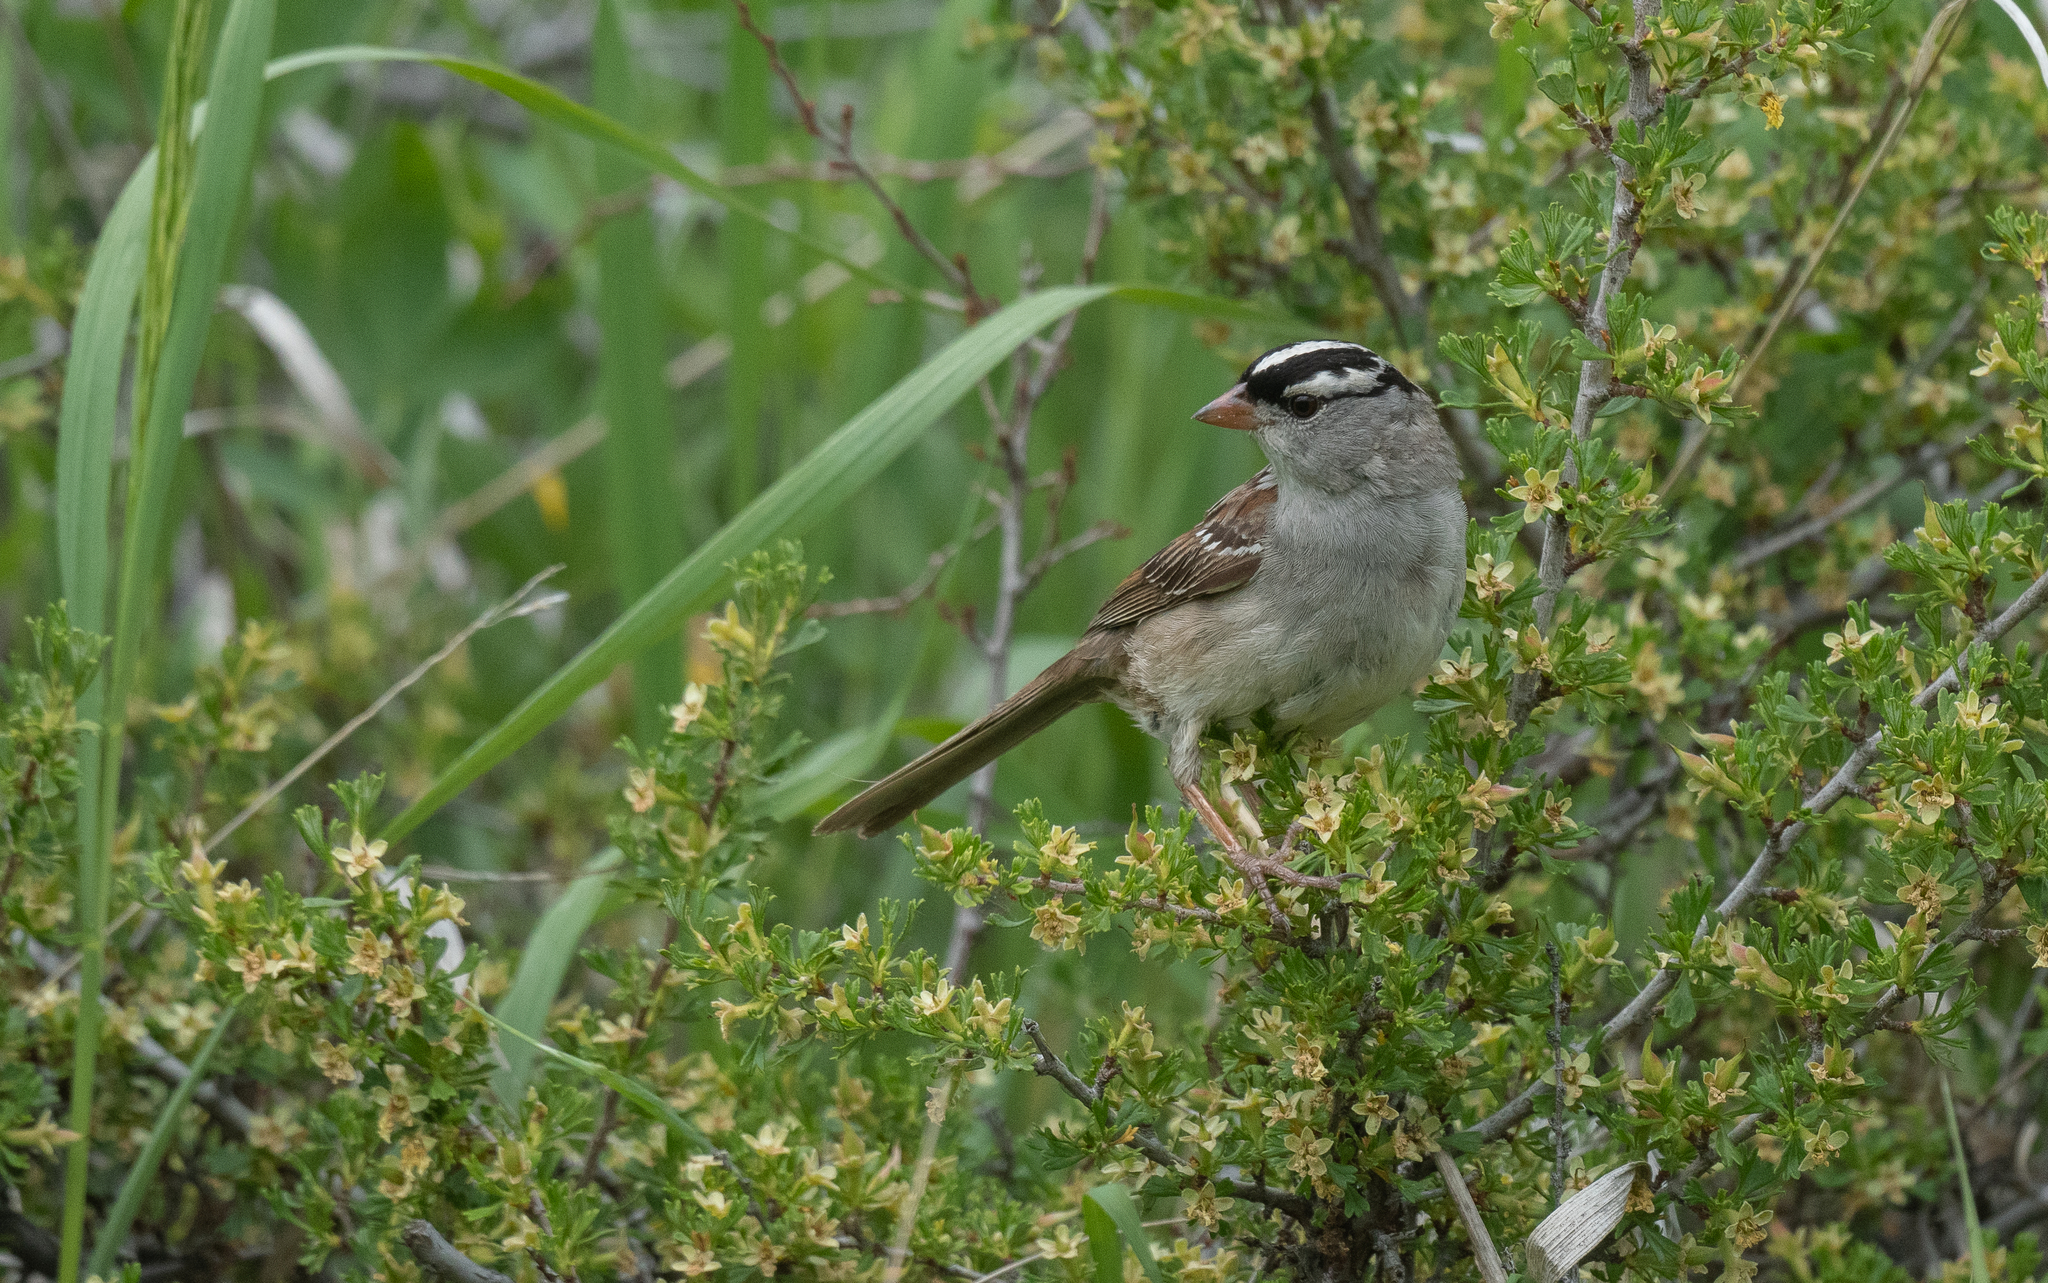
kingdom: Animalia
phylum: Chordata
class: Aves
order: Passeriformes
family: Passerellidae
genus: Zonotrichia
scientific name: Zonotrichia leucophrys
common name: White-crowned sparrow
